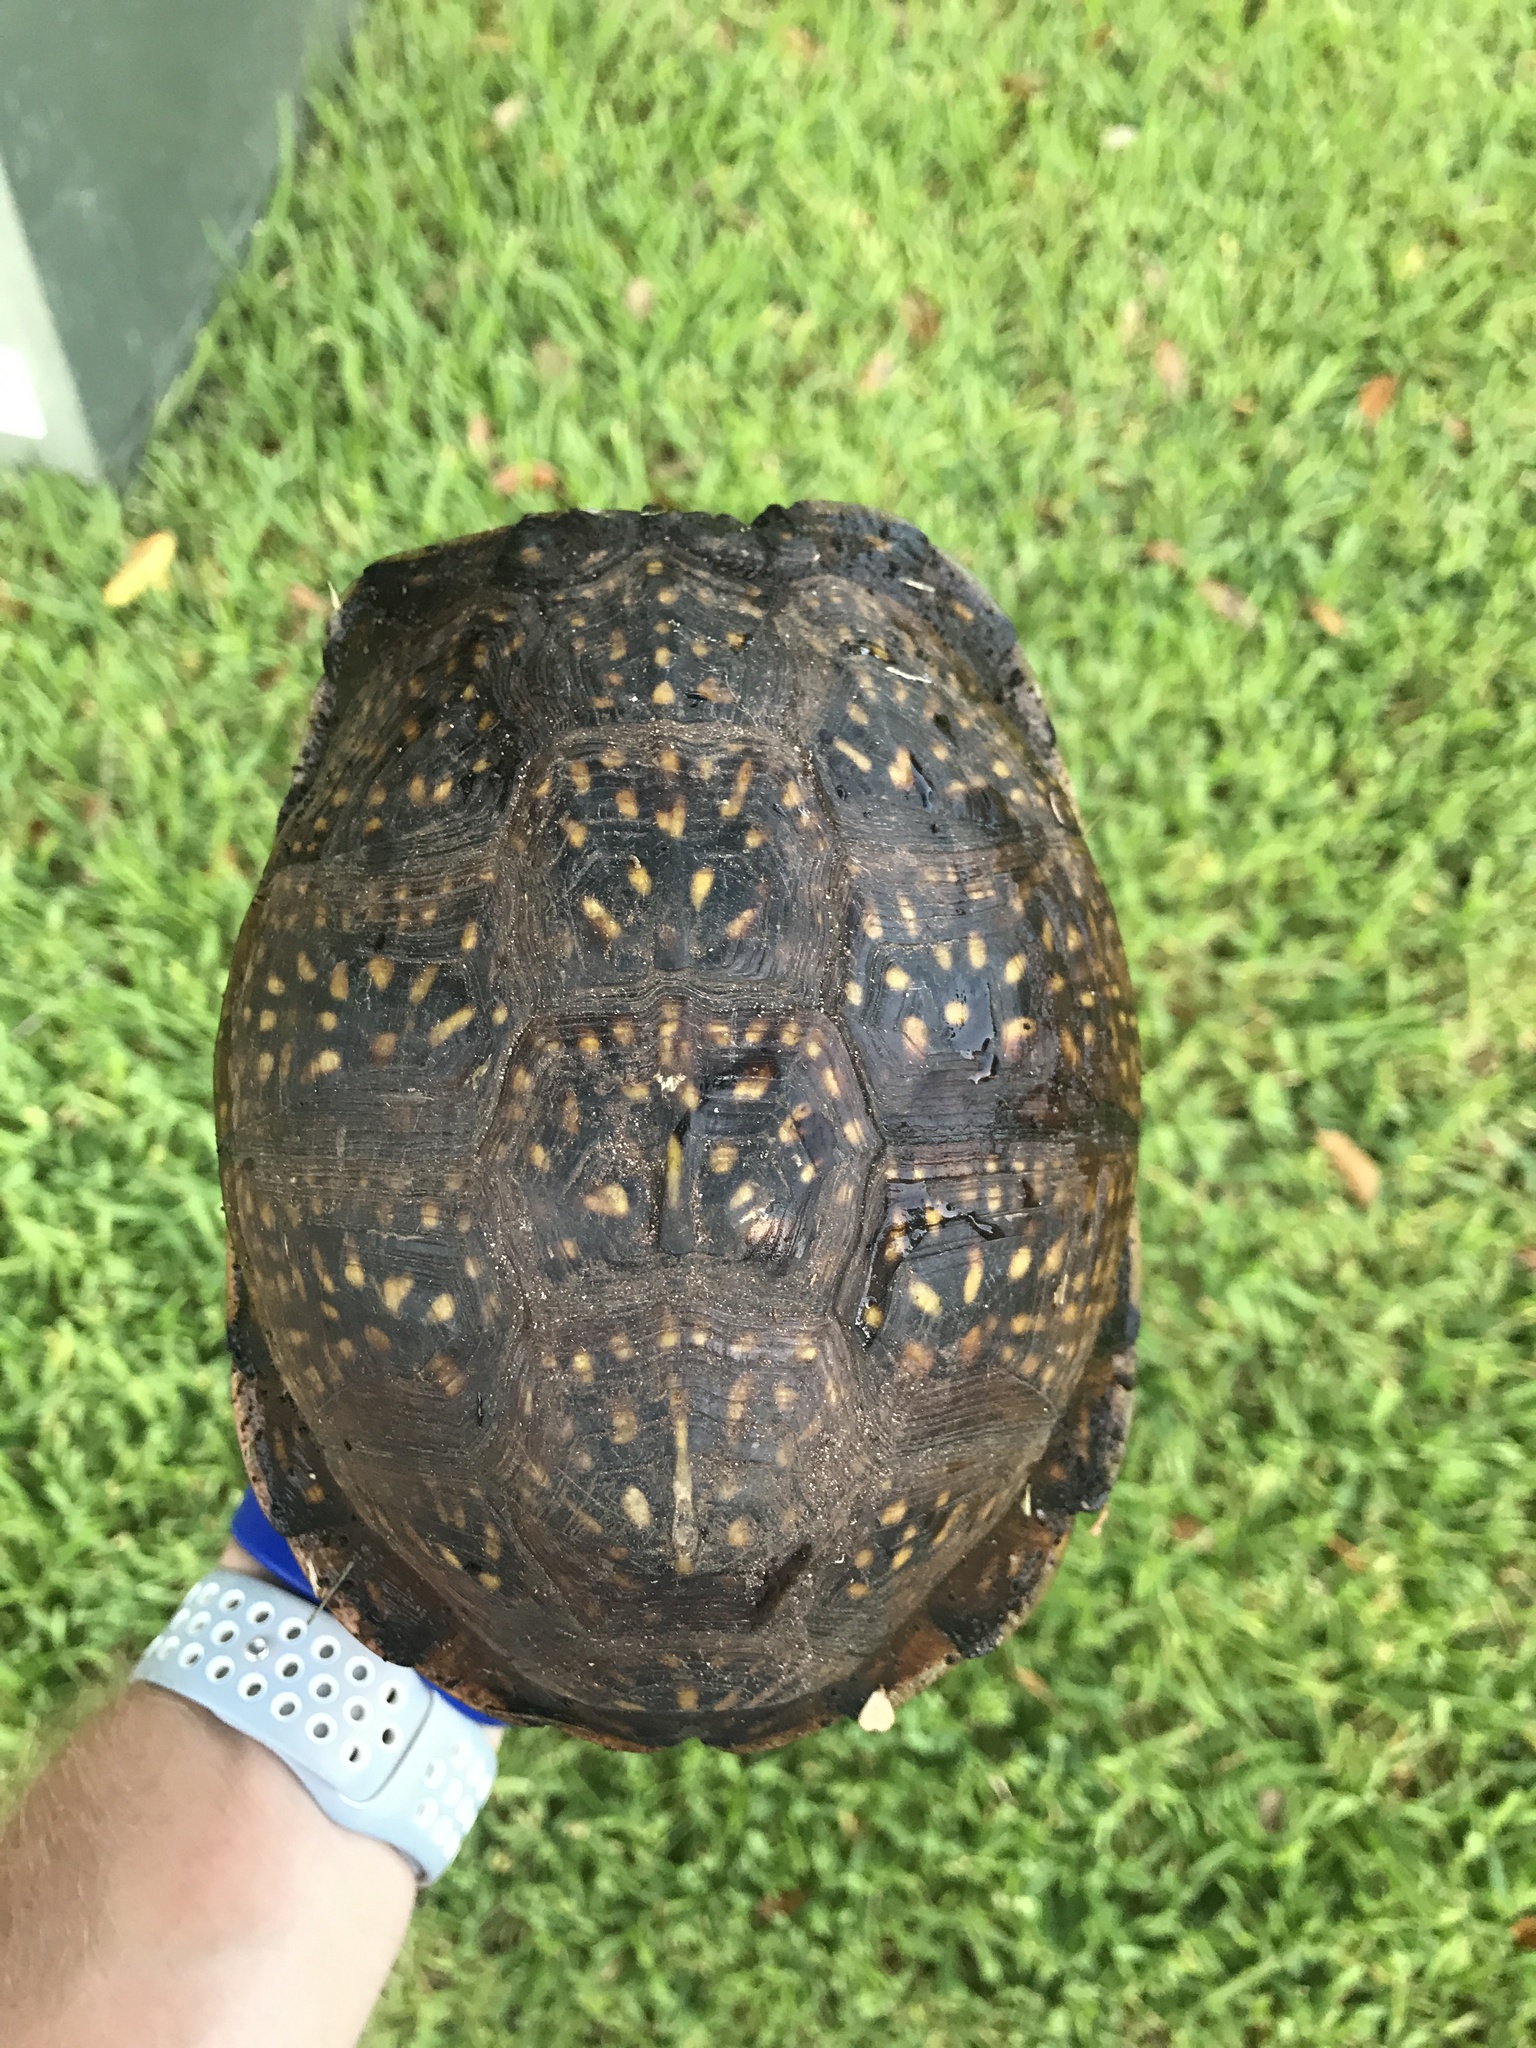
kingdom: Animalia
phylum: Chordata
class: Testudines
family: Emydidae
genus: Terrapene
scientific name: Terrapene carolina
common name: Common box turtle
